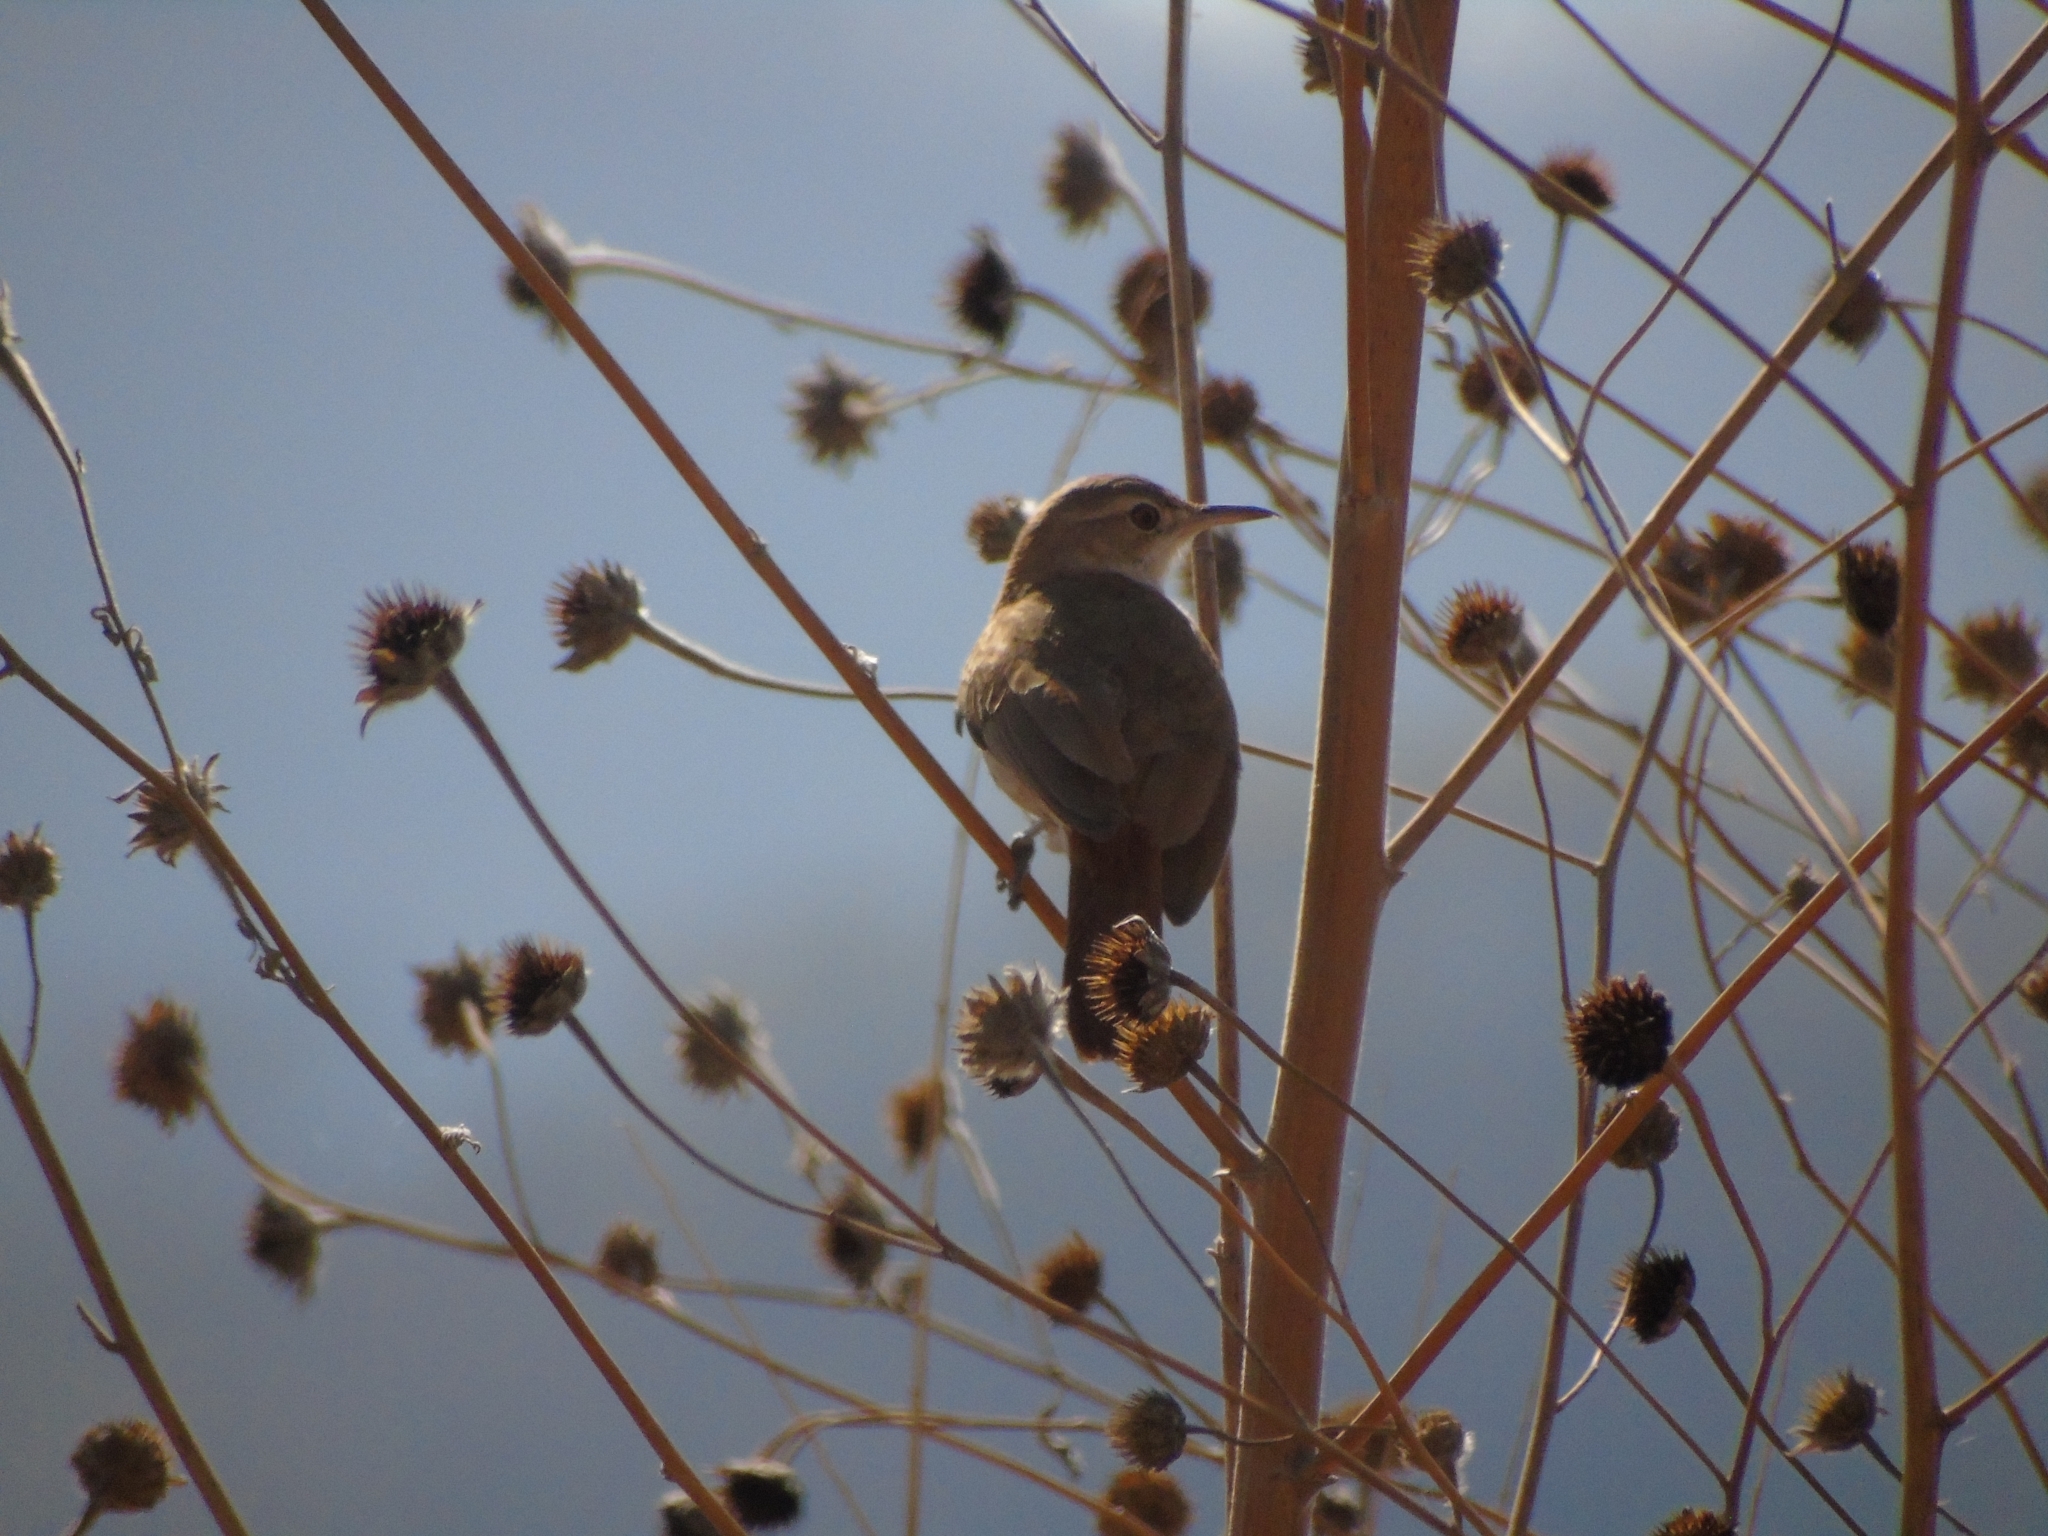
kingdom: Animalia
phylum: Chordata
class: Aves
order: Passeriformes
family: Furnariidae
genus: Furnarius
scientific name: Furnarius rufus
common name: Rufous hornero
